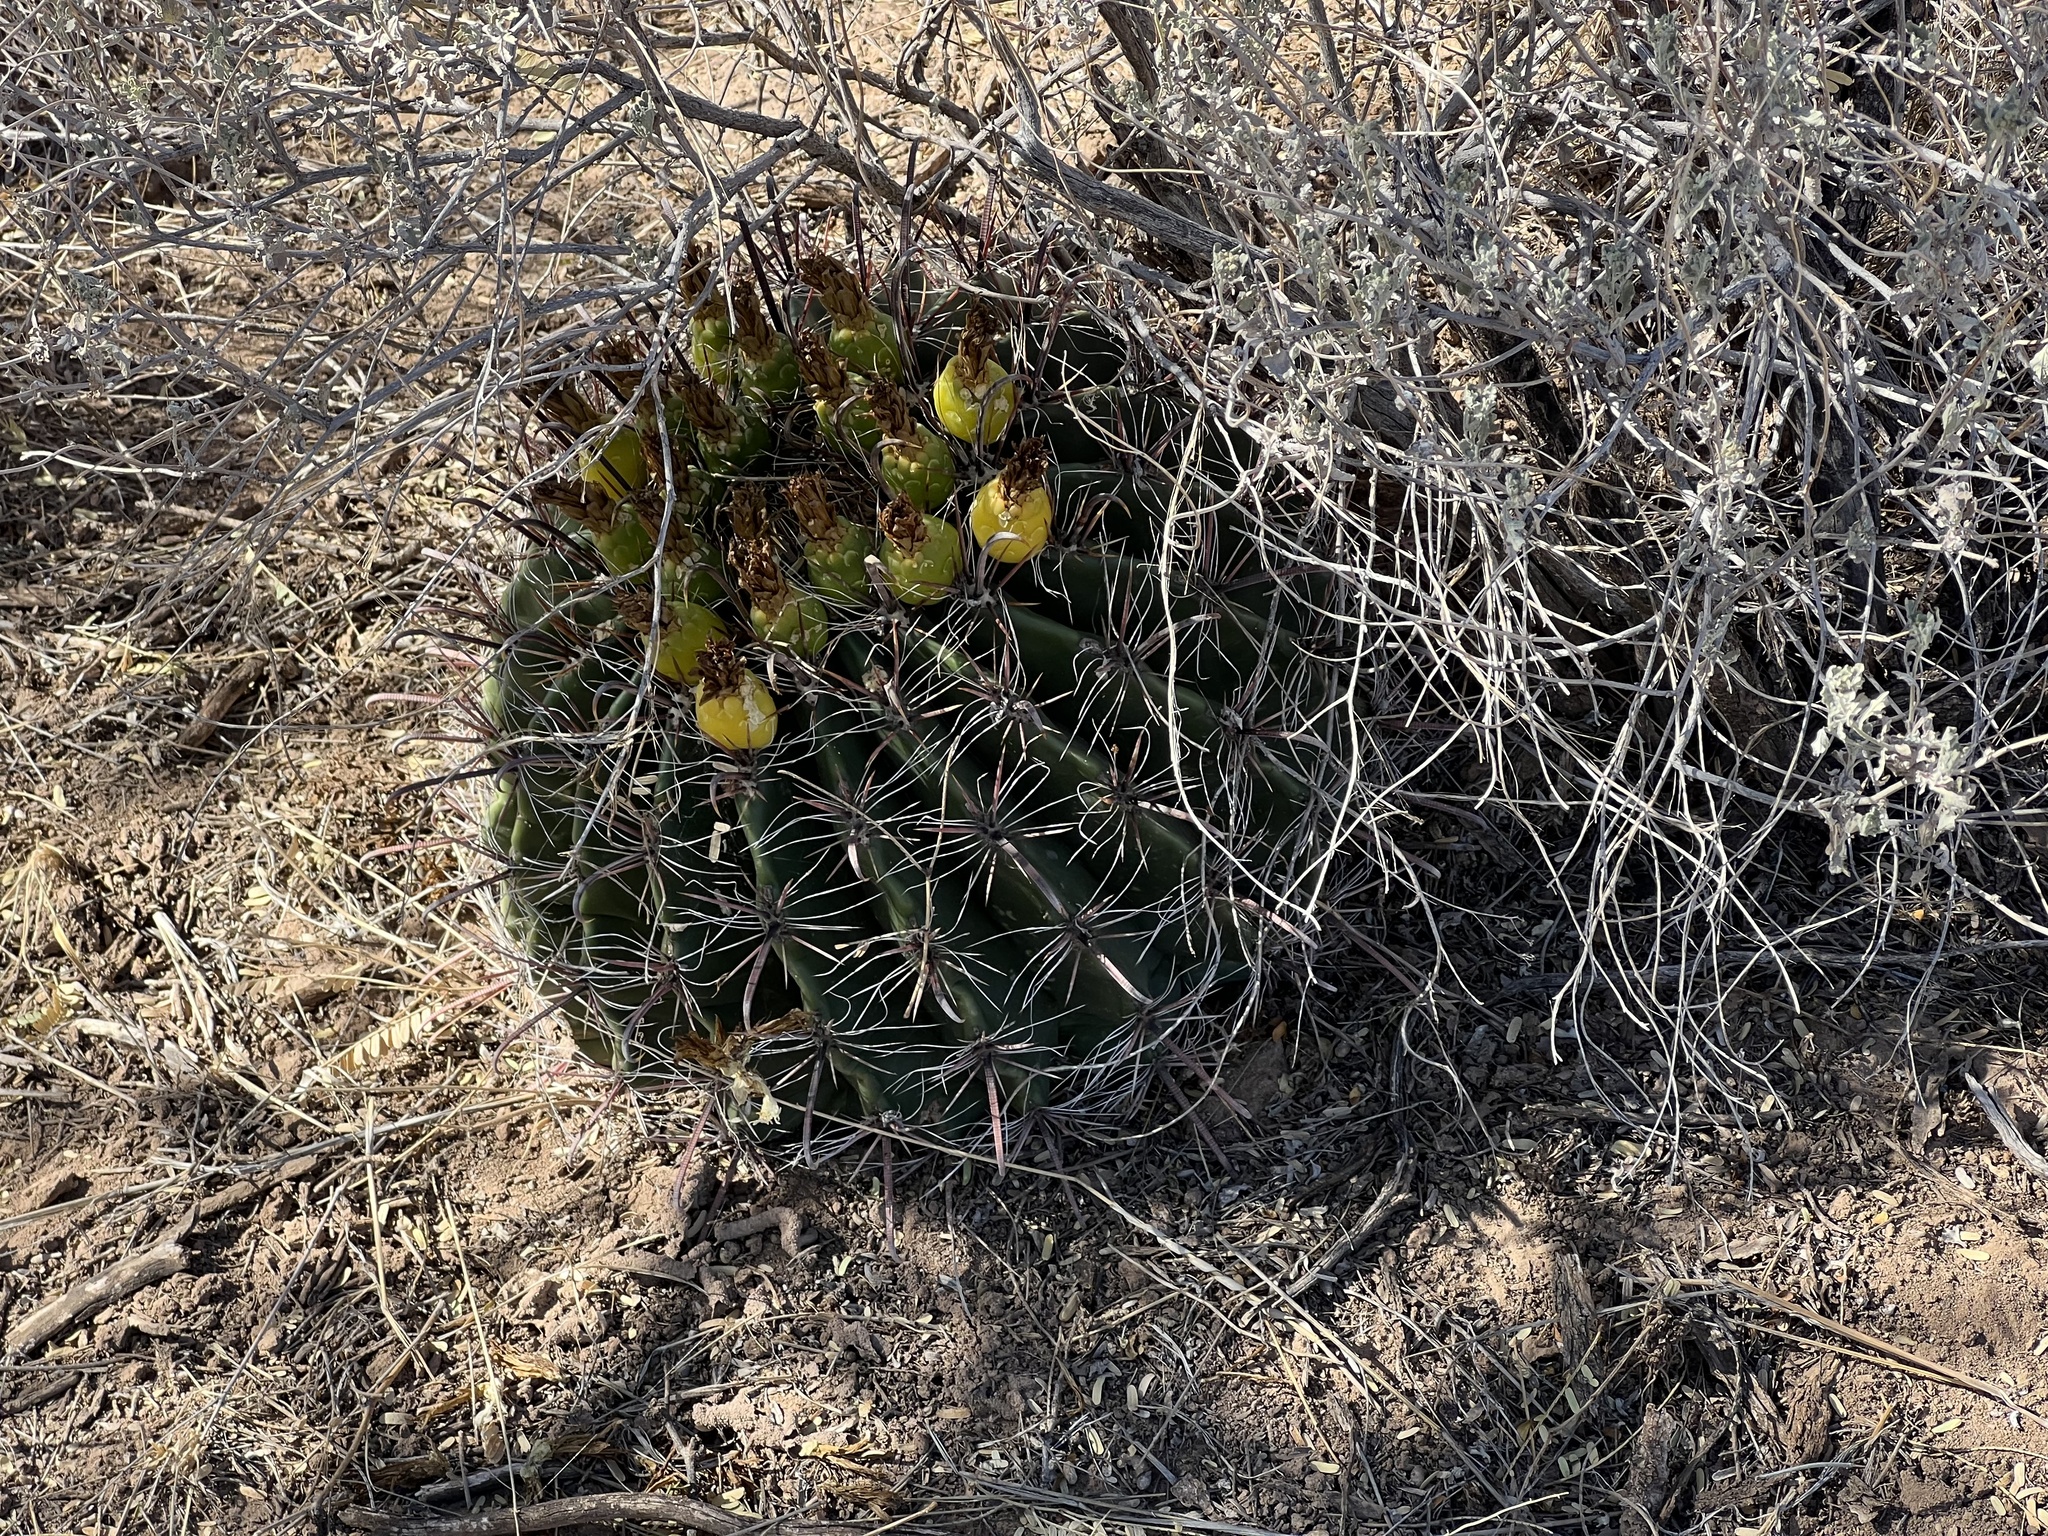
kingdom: Plantae
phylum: Tracheophyta
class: Magnoliopsida
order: Caryophyllales
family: Cactaceae
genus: Ferocactus
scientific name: Ferocactus wislizeni
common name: Candy barrel cactus
